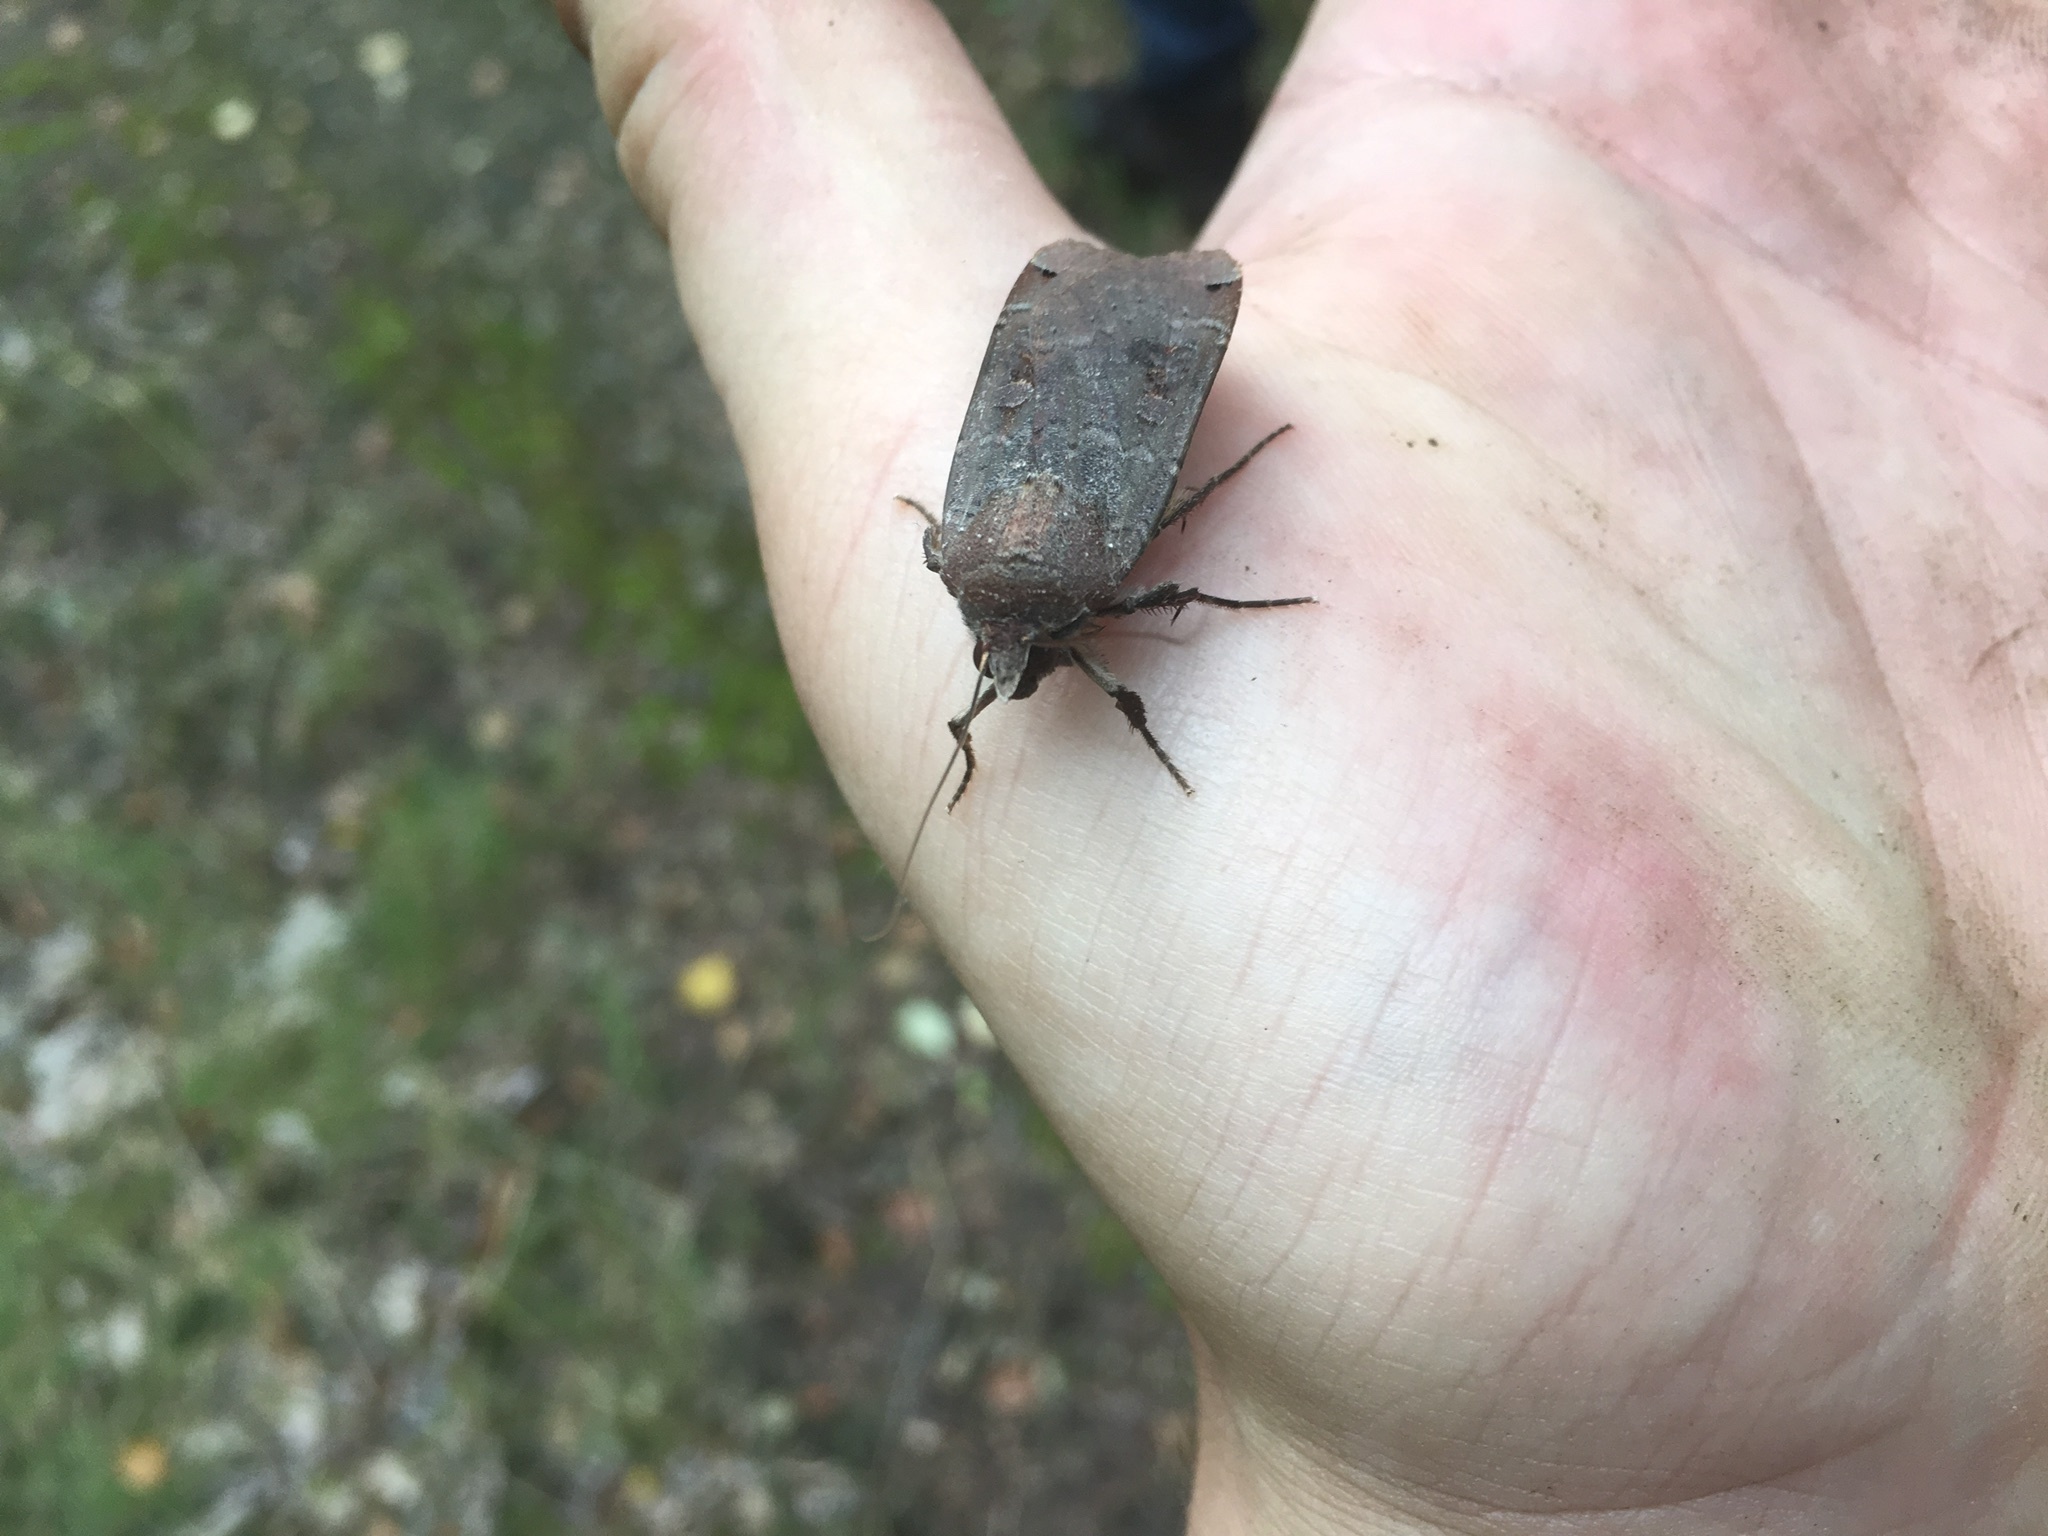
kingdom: Animalia
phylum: Arthropoda
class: Insecta
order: Lepidoptera
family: Noctuidae
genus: Noctua
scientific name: Noctua pronuba
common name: Large yellow underwing
